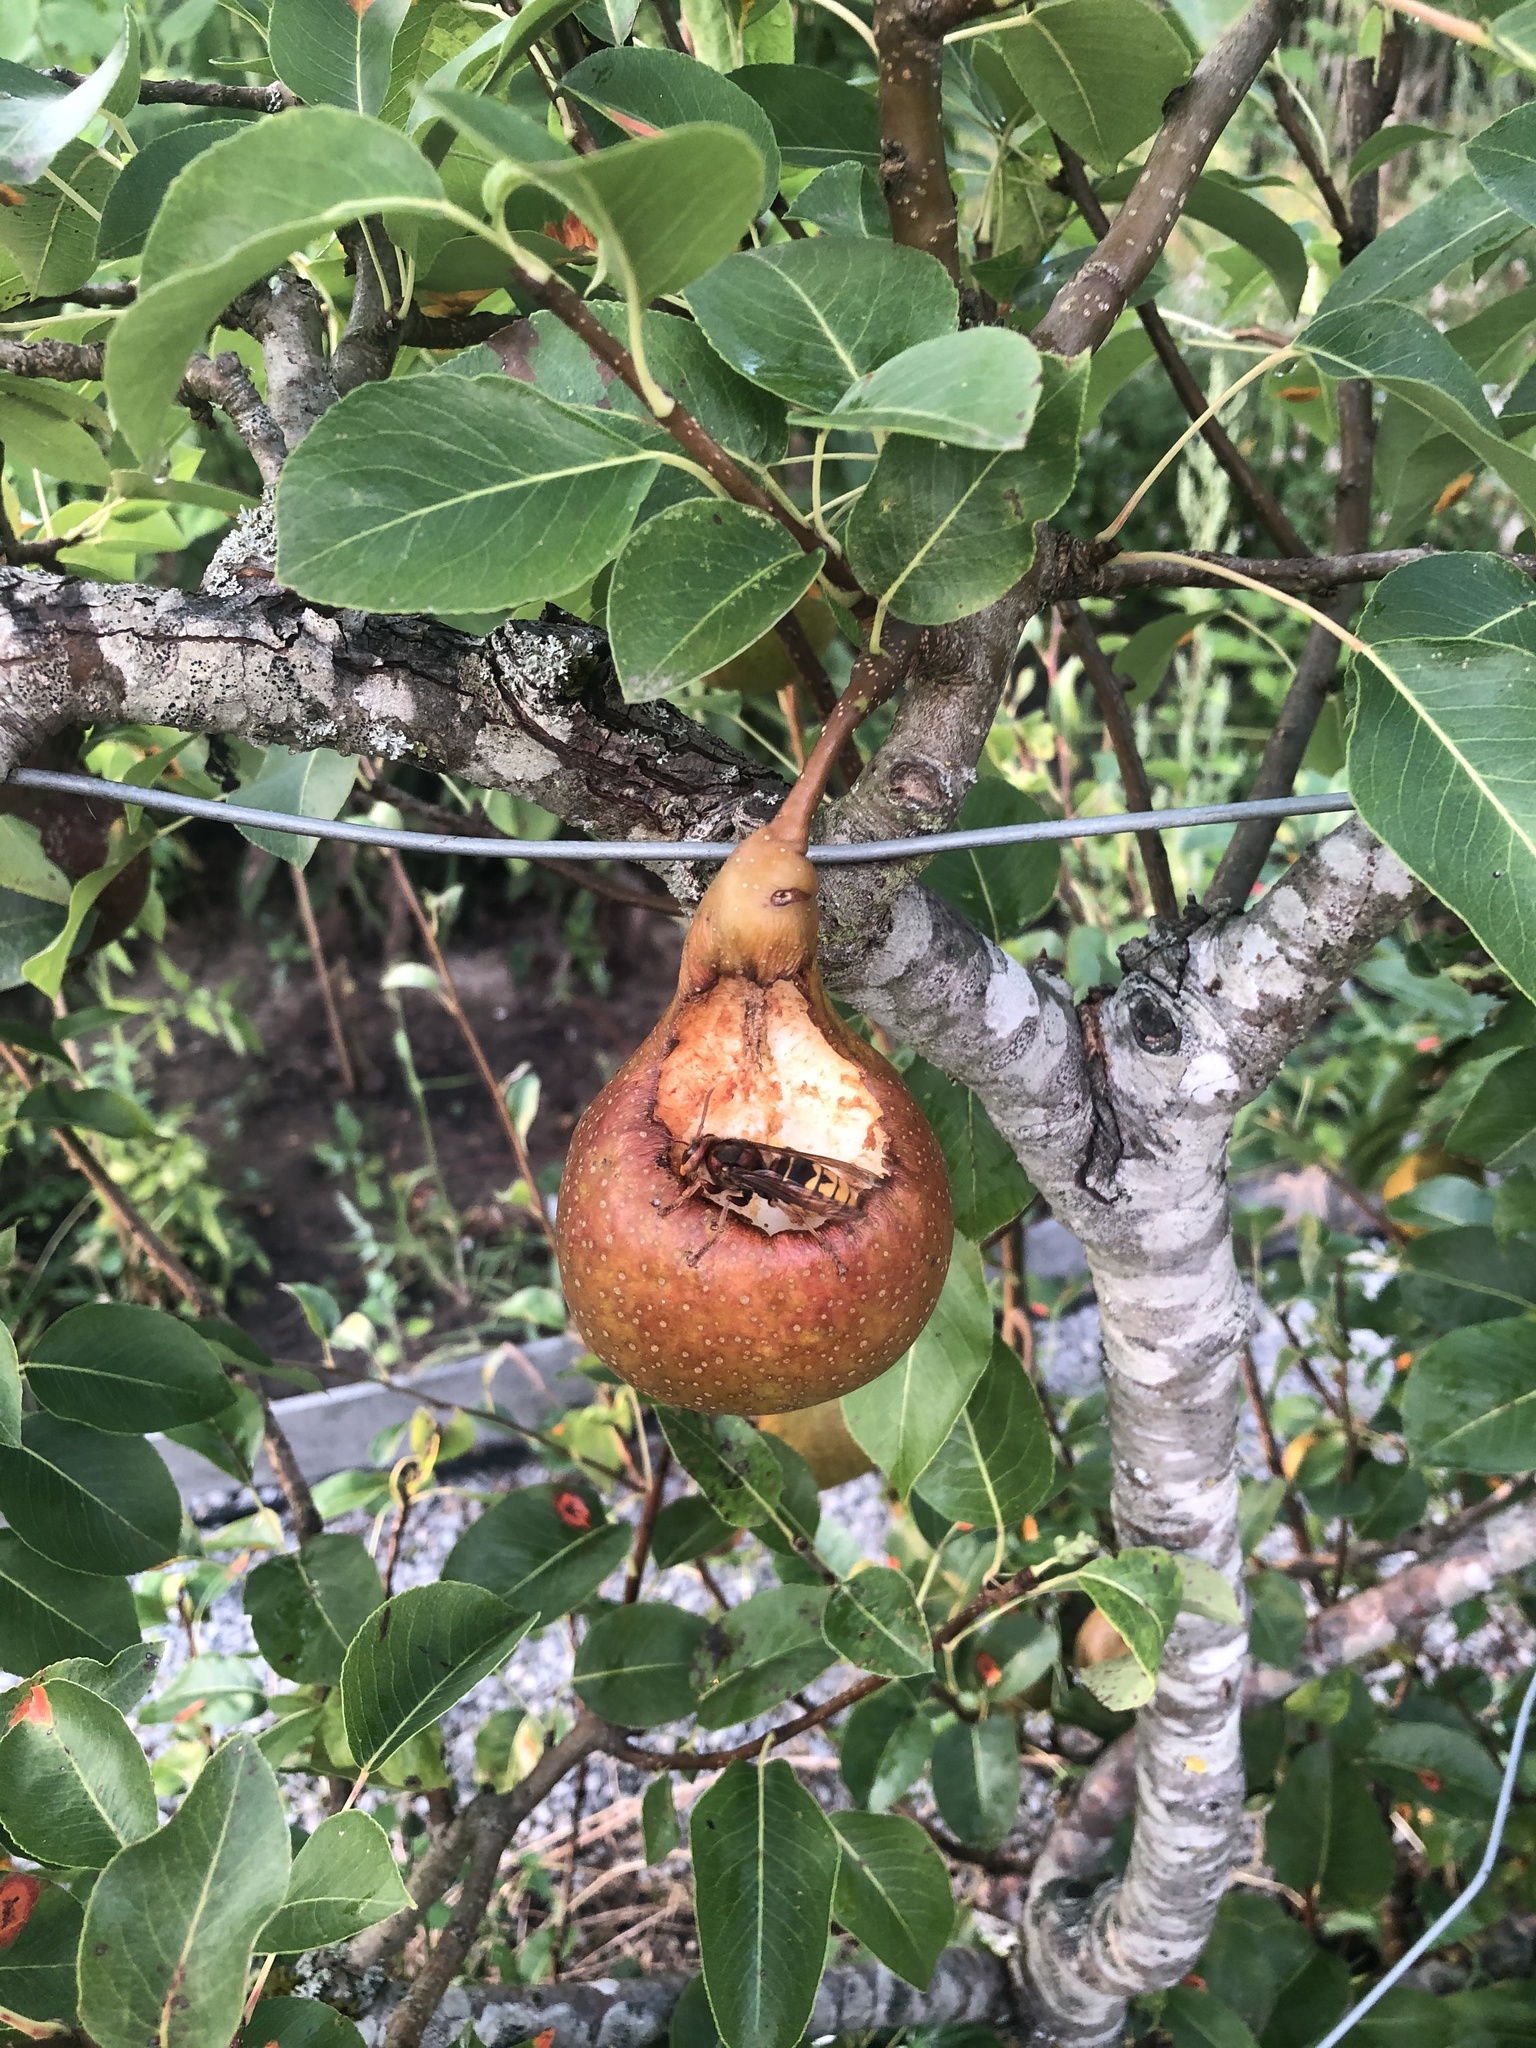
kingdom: Animalia
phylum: Arthropoda
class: Insecta
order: Hymenoptera
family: Vespidae
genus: Vespa
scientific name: Vespa crabro
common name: Hornet
